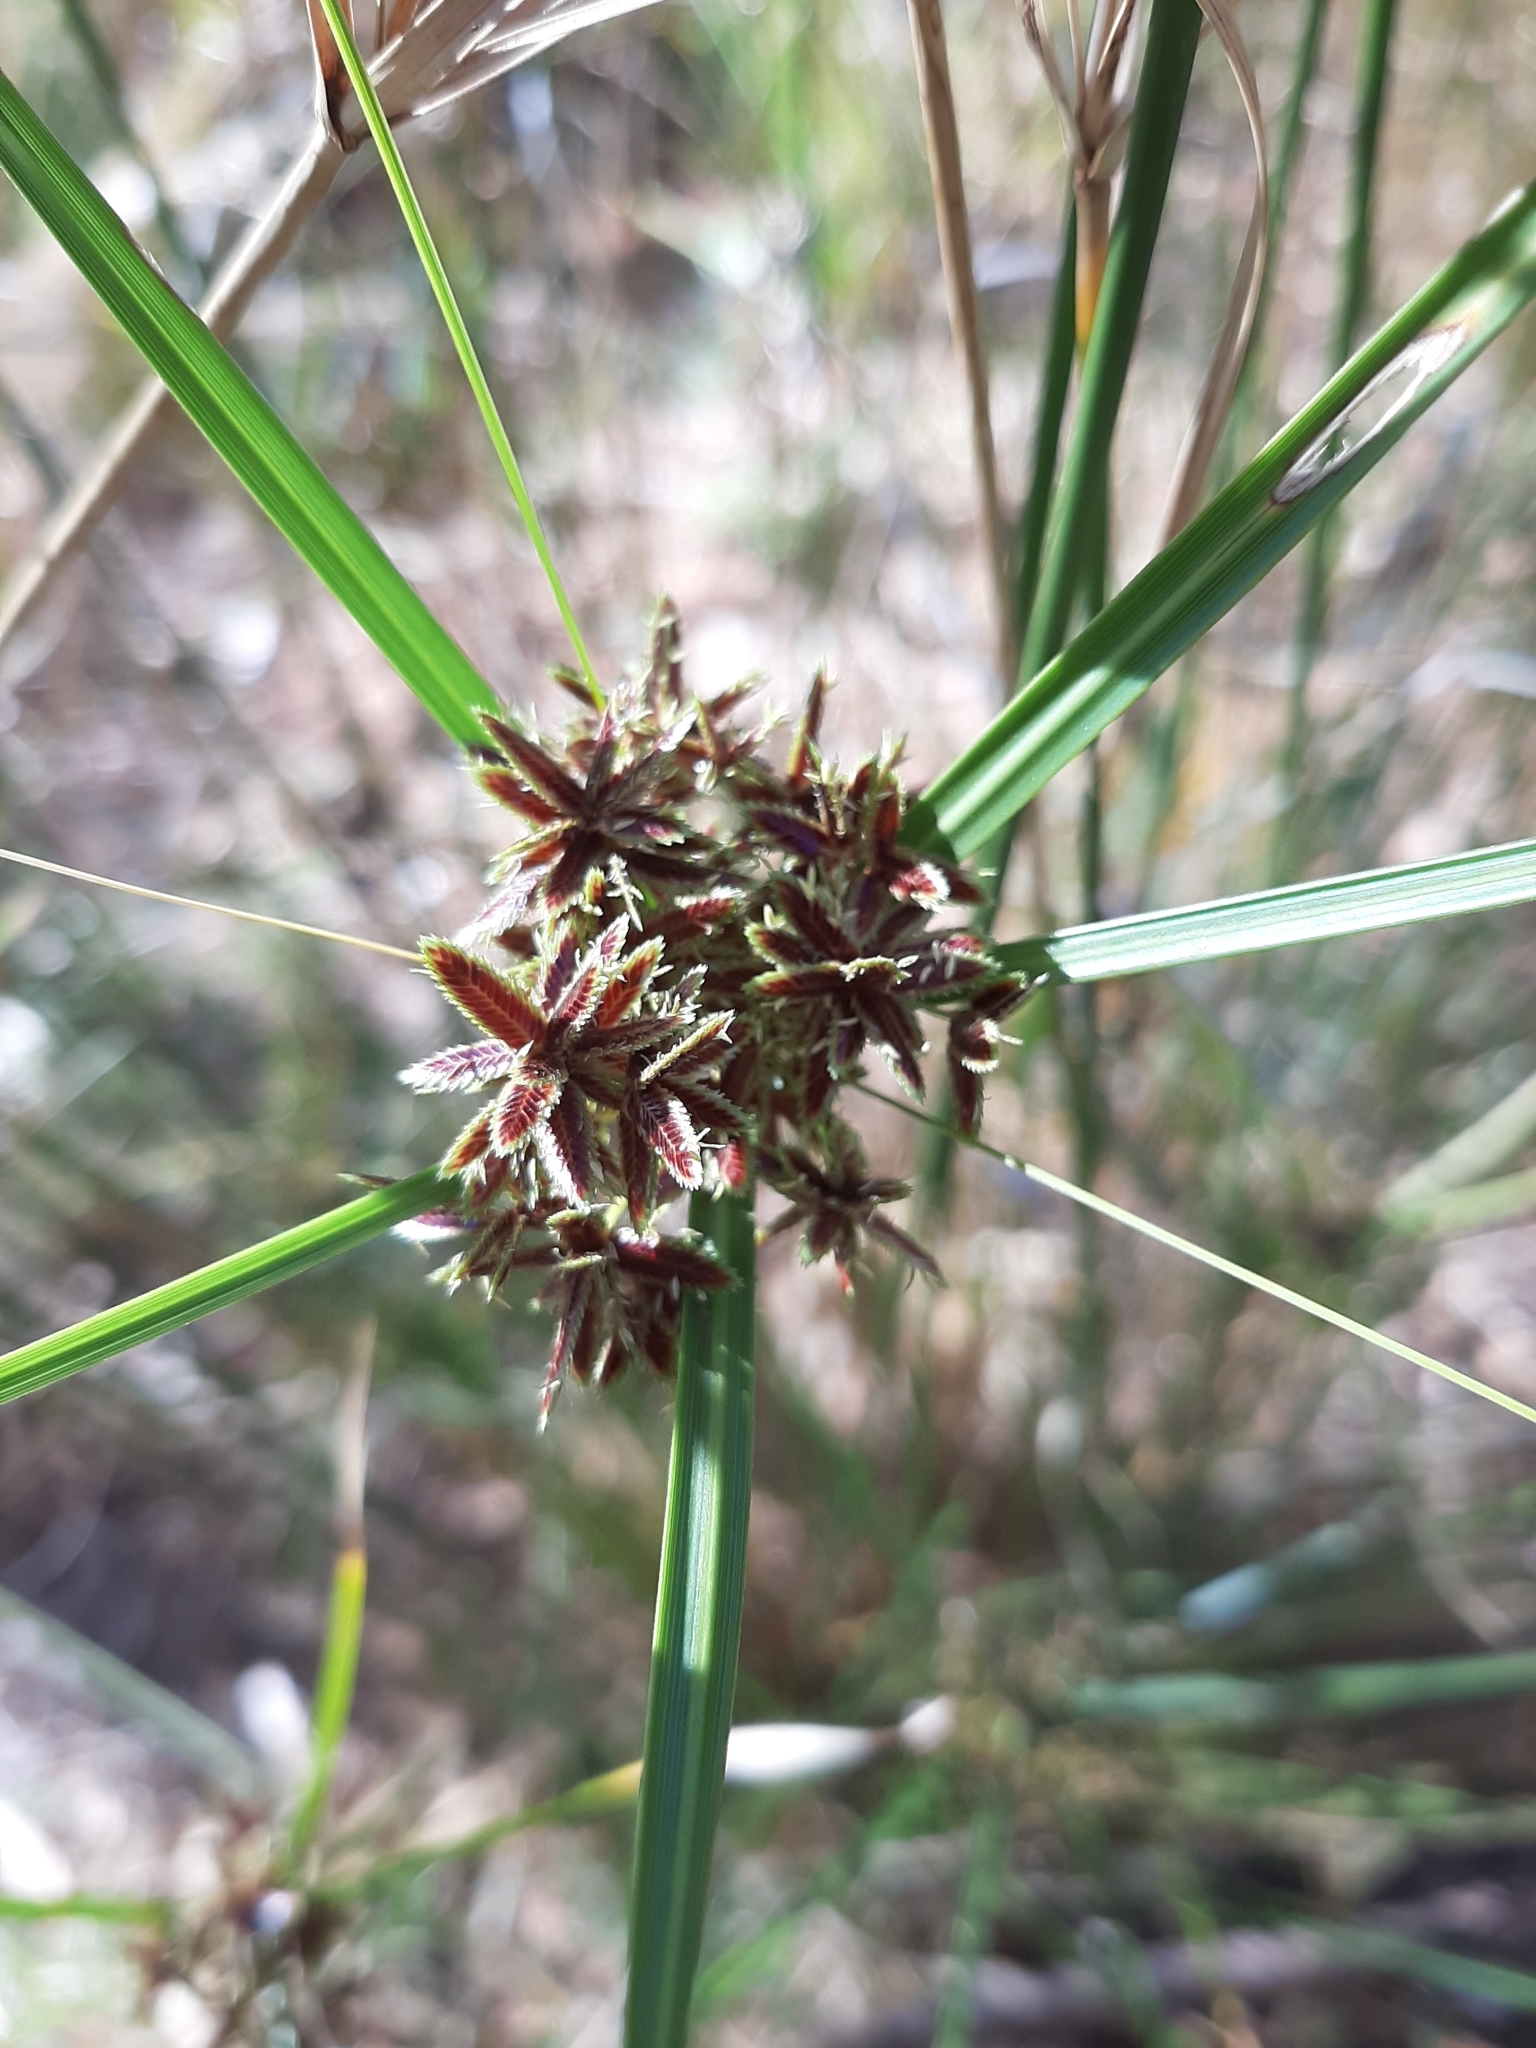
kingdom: Plantae
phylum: Tracheophyta
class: Liliopsida
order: Poales
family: Cyperaceae
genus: Cyperus
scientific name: Cyperus vaginatus
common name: Stiff-leaved flat-sedge
